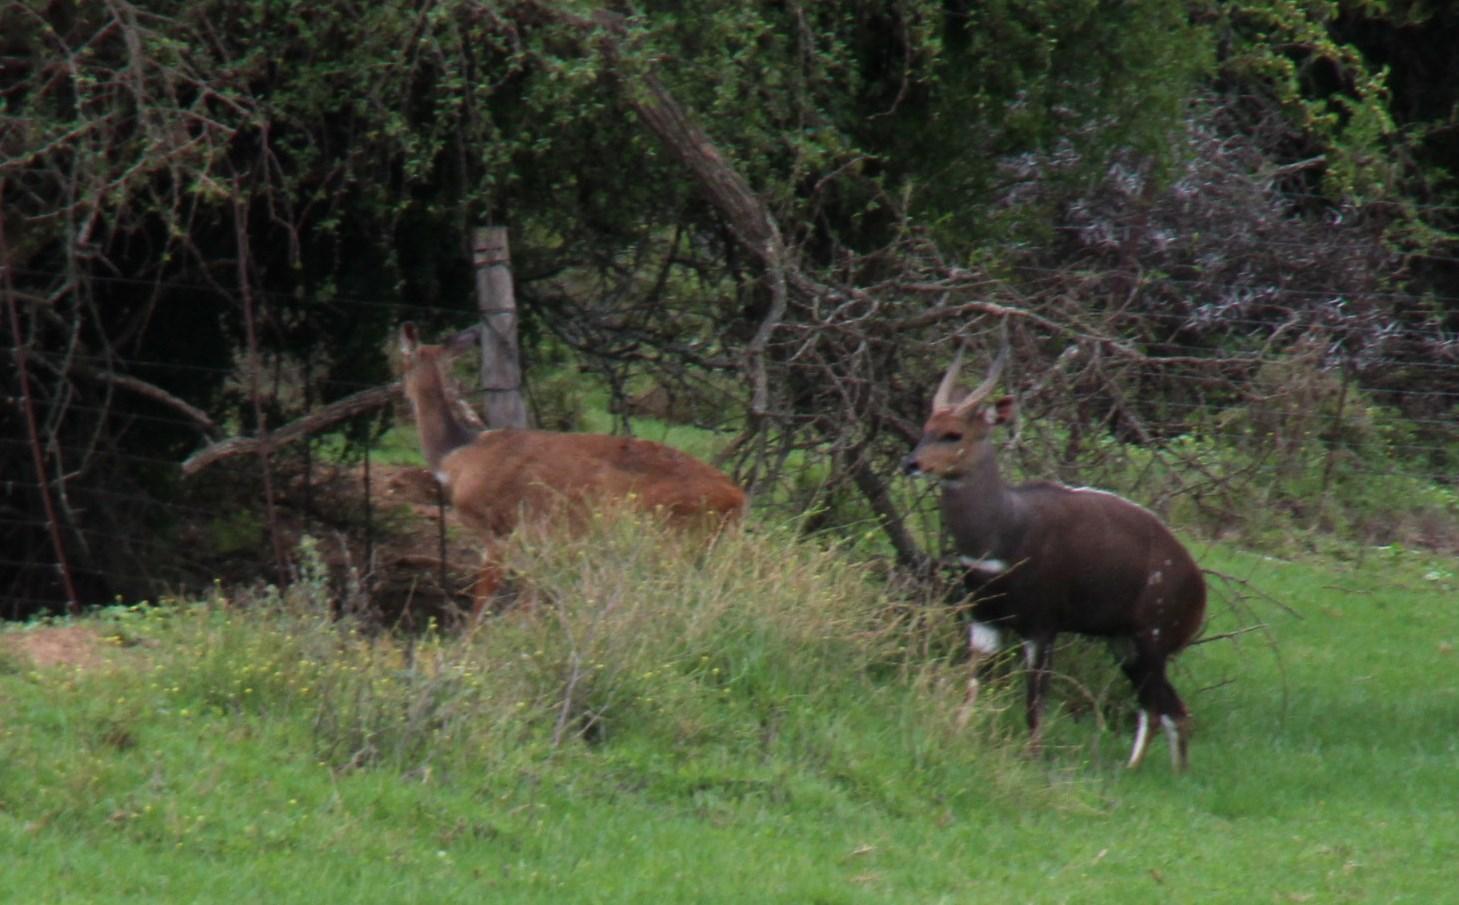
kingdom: Animalia
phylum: Chordata
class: Mammalia
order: Artiodactyla
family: Bovidae
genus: Tragelaphus
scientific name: Tragelaphus scriptus
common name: Bushbuck
